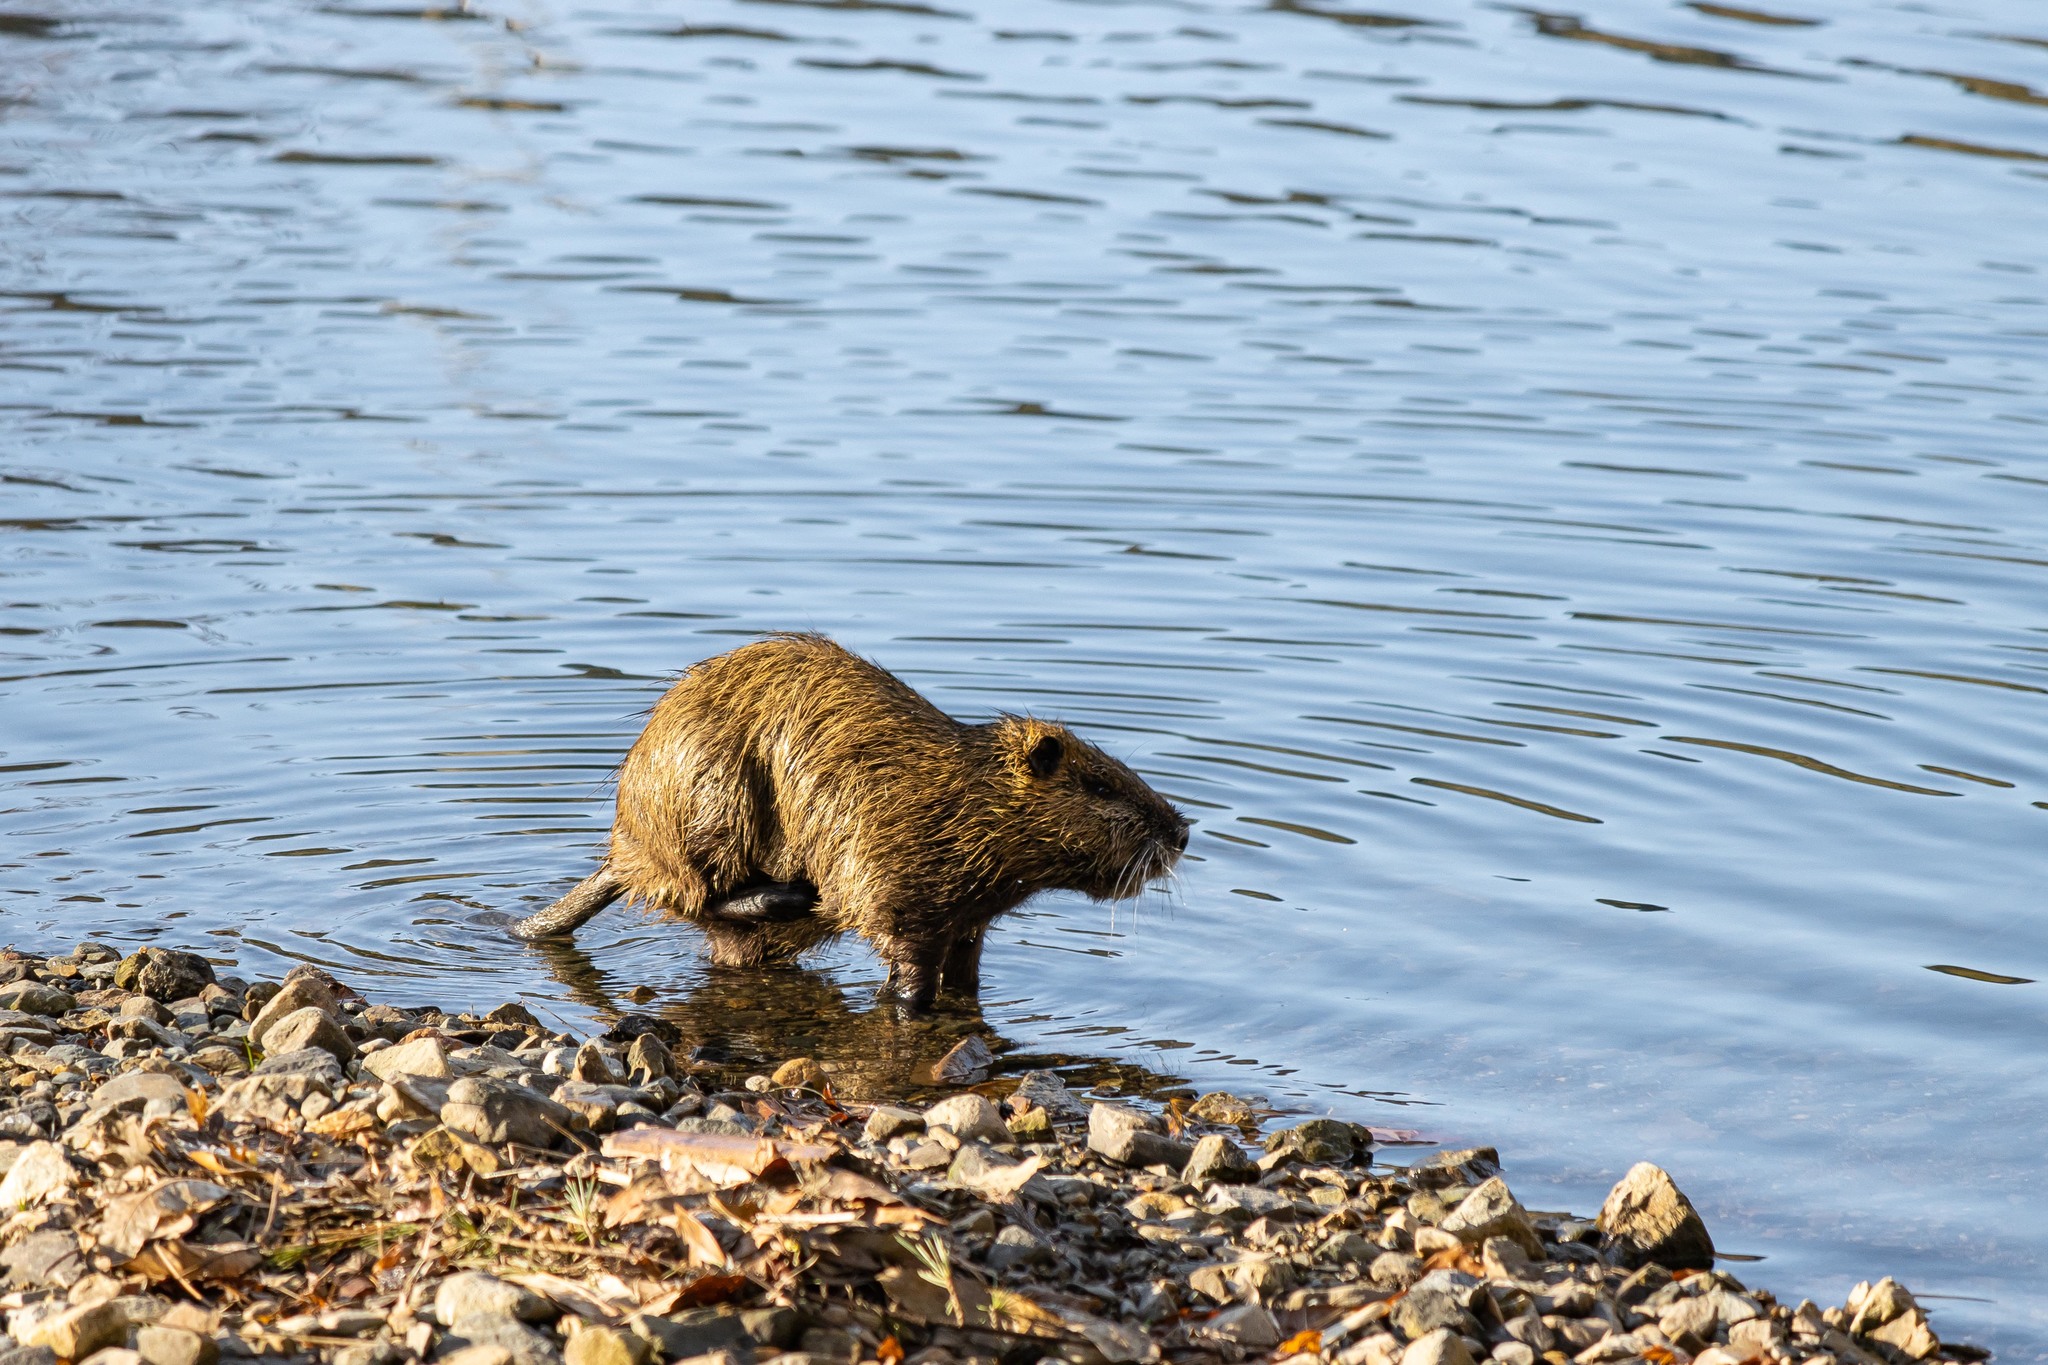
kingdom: Animalia
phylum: Chordata
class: Mammalia
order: Rodentia
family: Myocastoridae
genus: Myocastor
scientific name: Myocastor coypus
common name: Coypu
